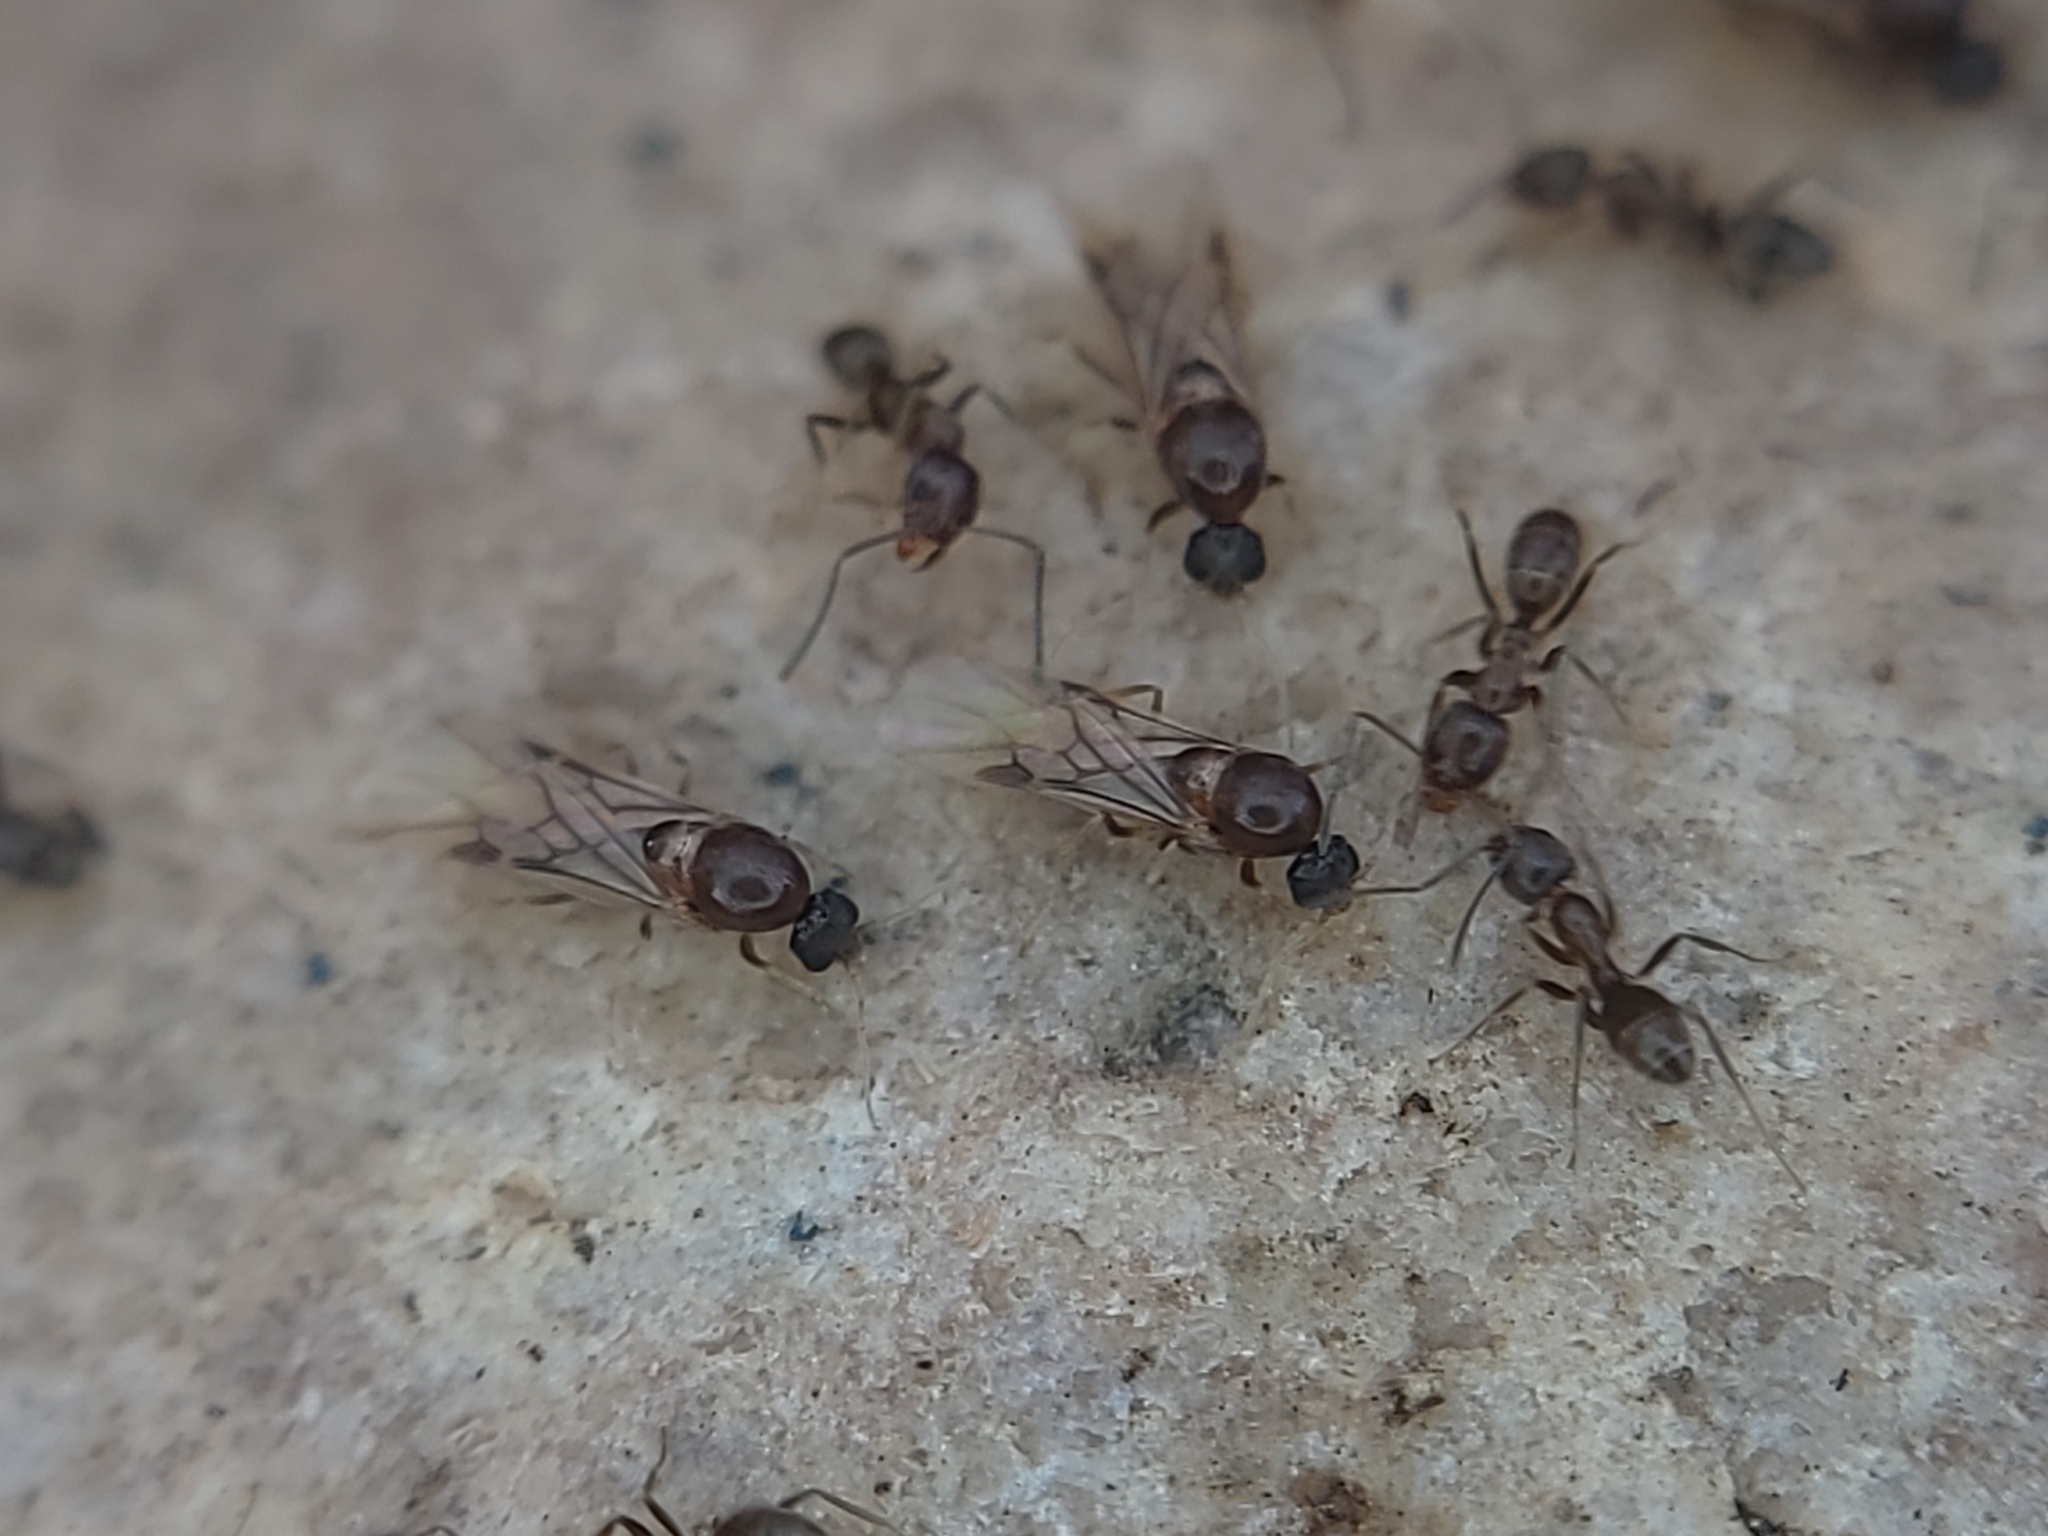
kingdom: Animalia
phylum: Arthropoda
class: Insecta
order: Hymenoptera
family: Formicidae
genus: Linepithema
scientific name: Linepithema humile
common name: Argentine ant
